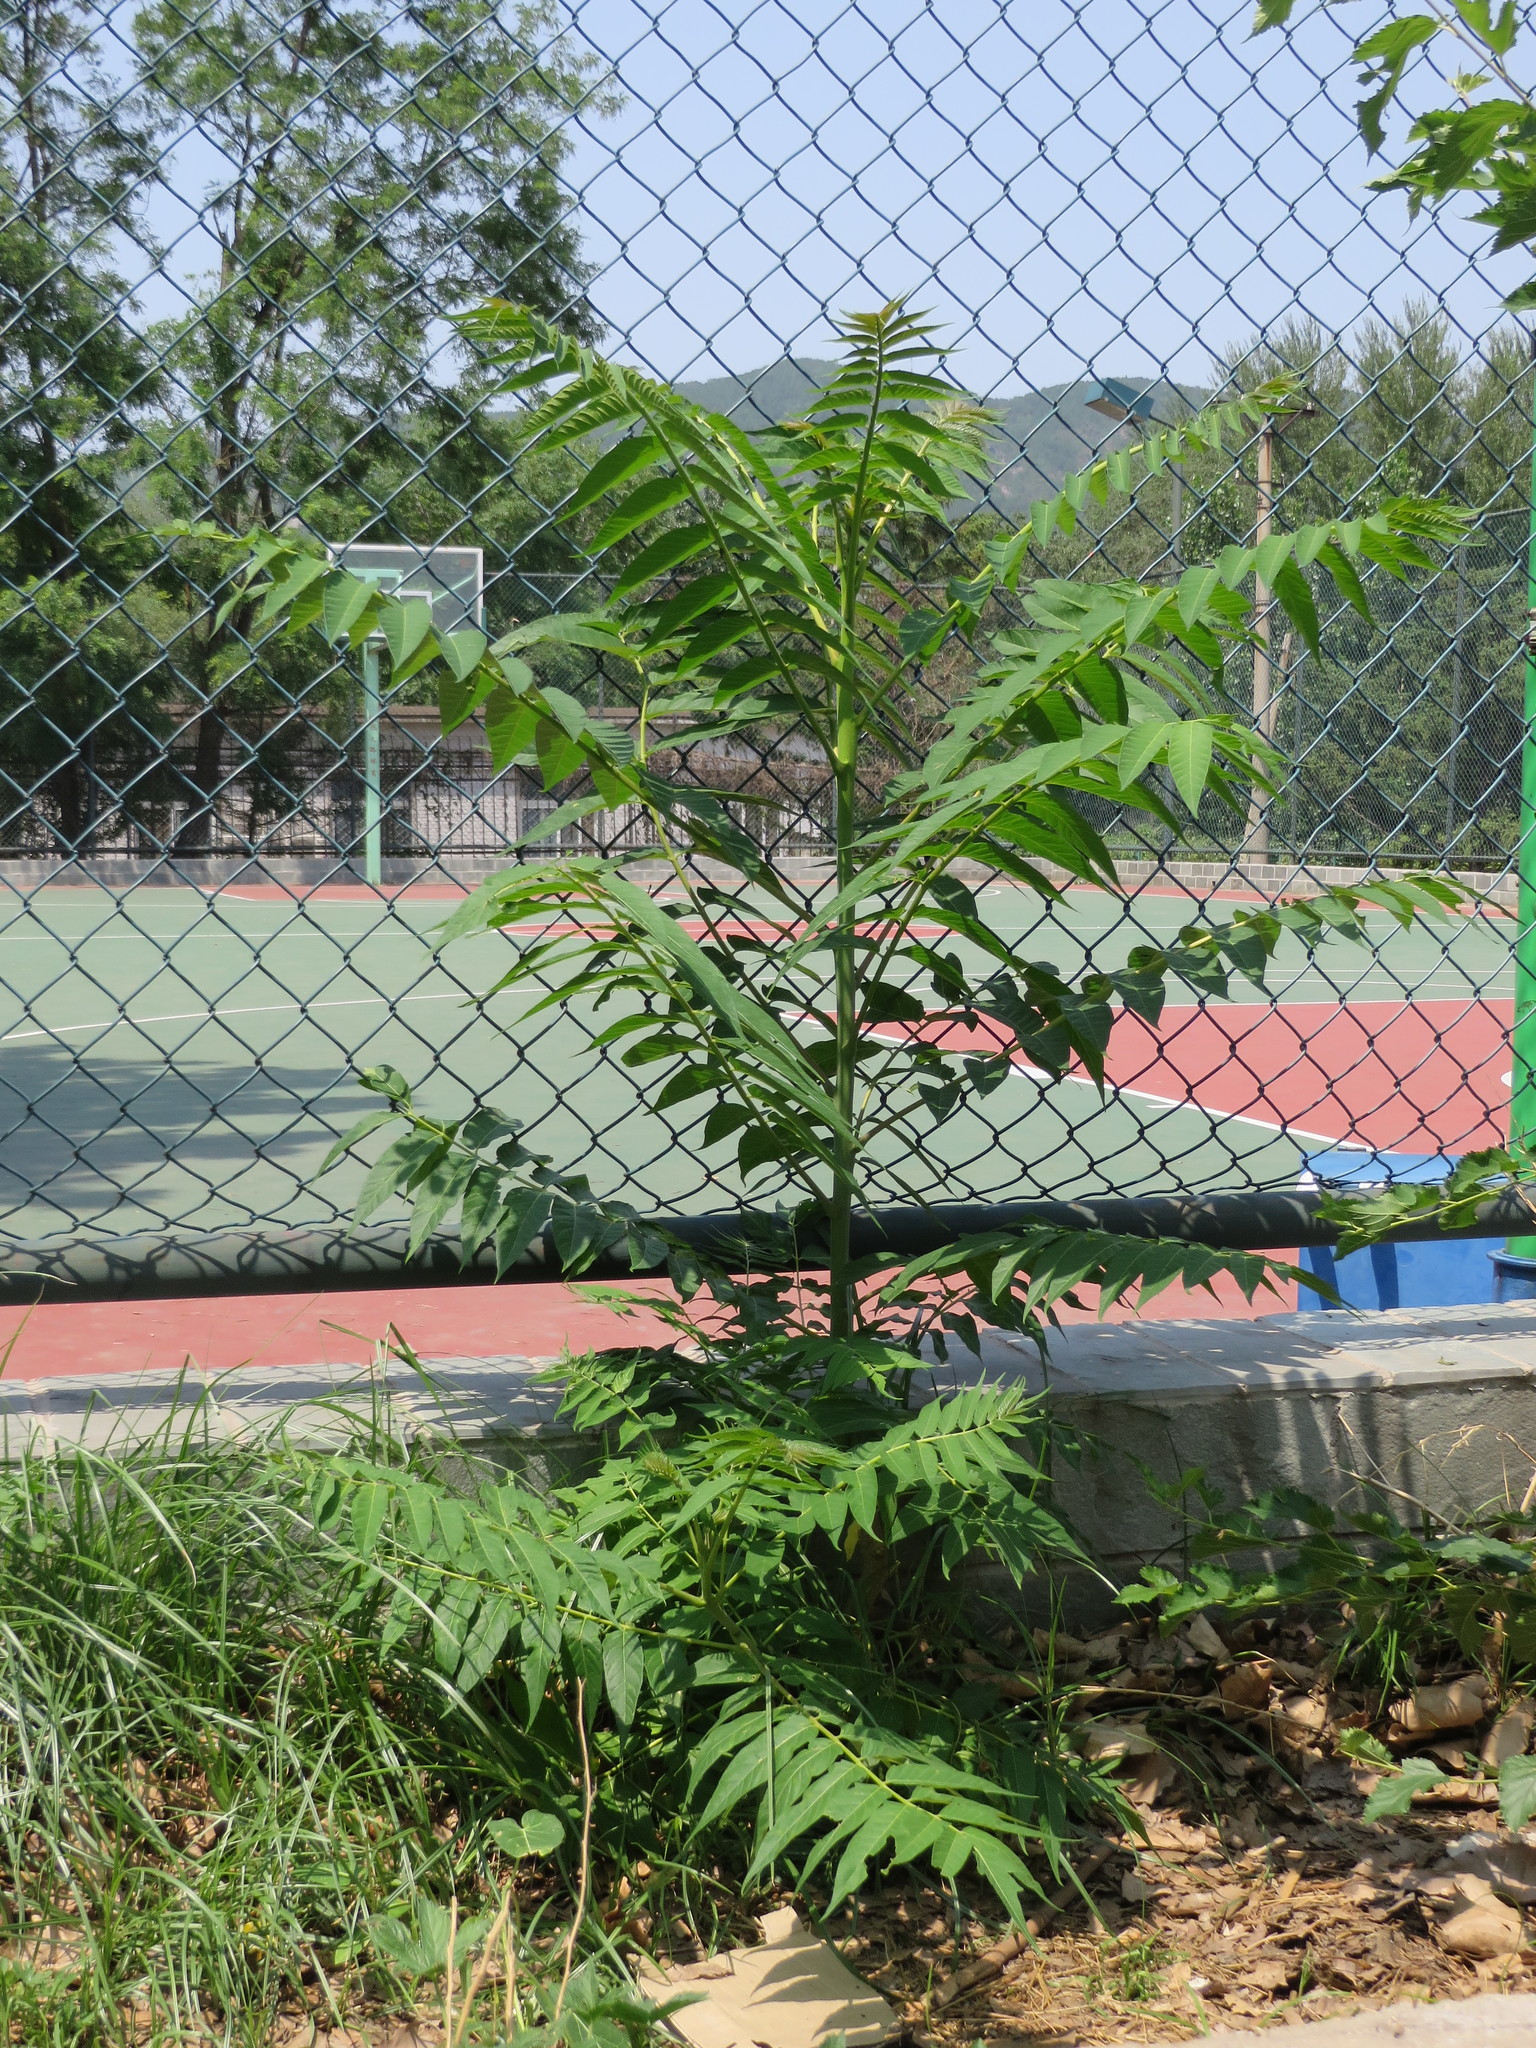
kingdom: Plantae
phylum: Tracheophyta
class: Magnoliopsida
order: Sapindales
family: Simaroubaceae
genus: Ailanthus
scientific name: Ailanthus altissima
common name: Tree-of-heaven
